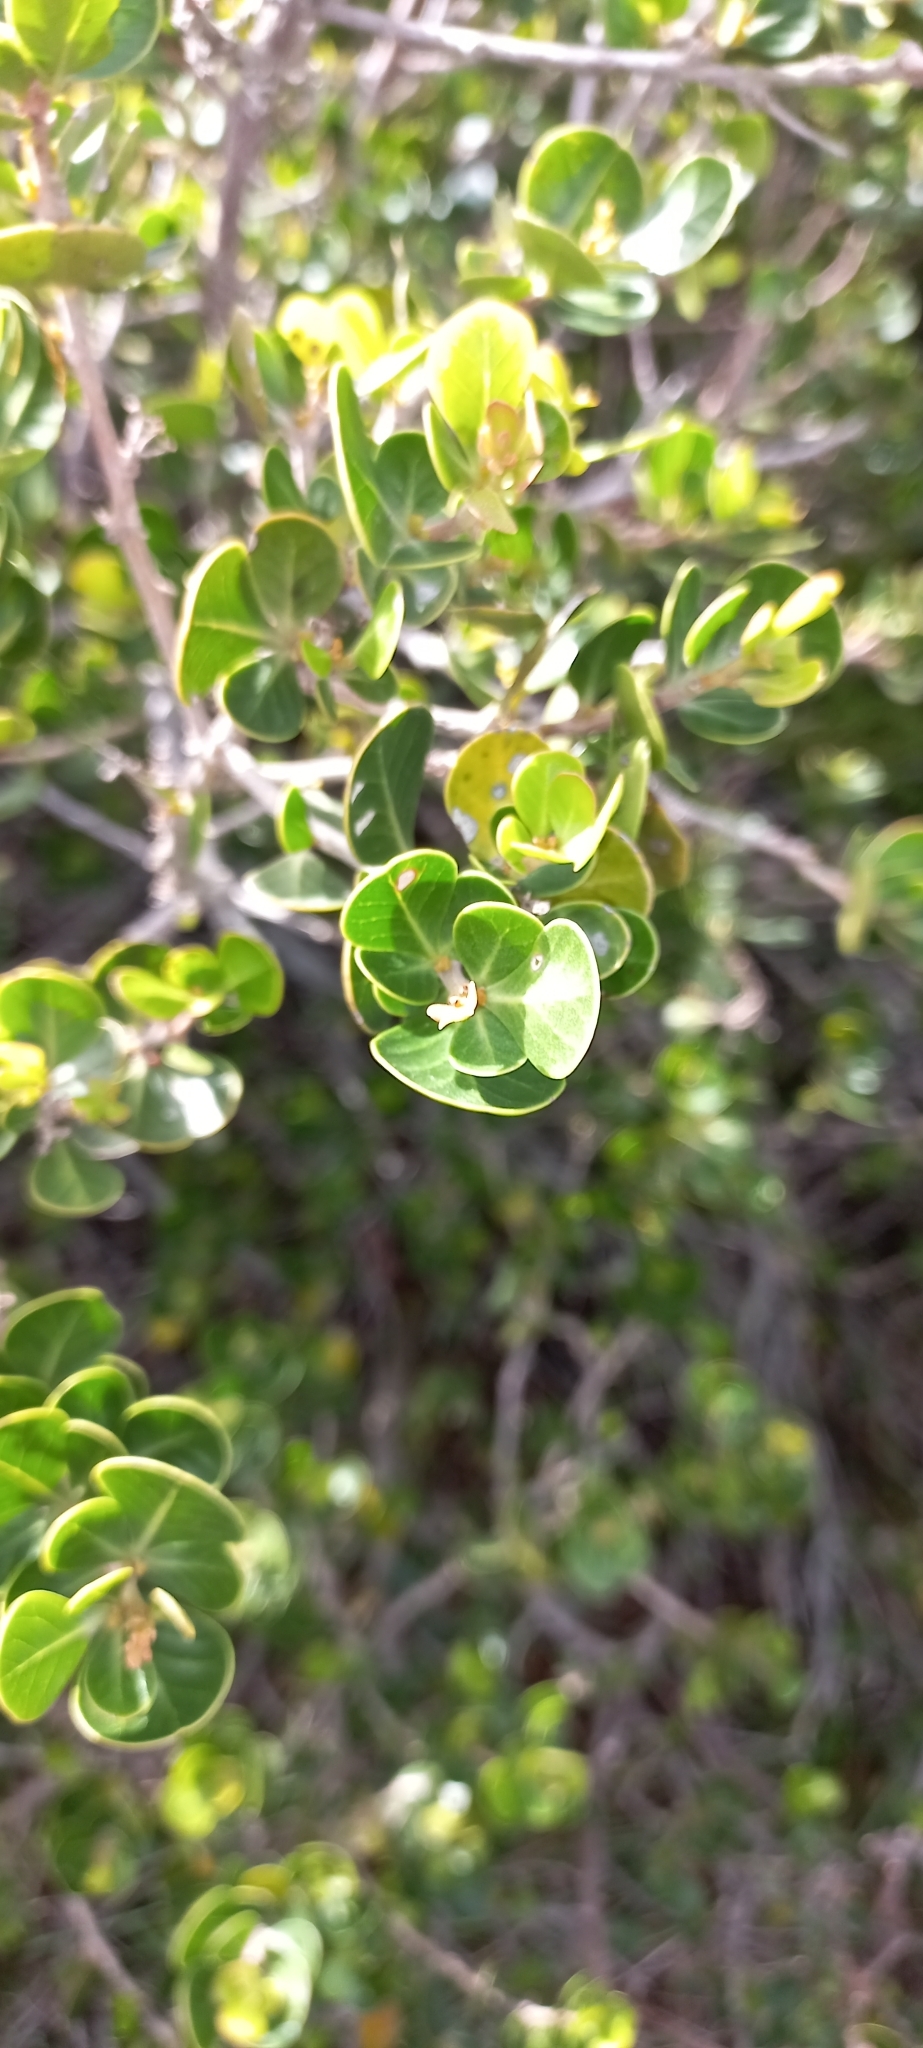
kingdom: Plantae
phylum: Tracheophyta
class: Magnoliopsida
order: Sapindales
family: Anacardiaceae
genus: Searsia
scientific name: Searsia lucida
